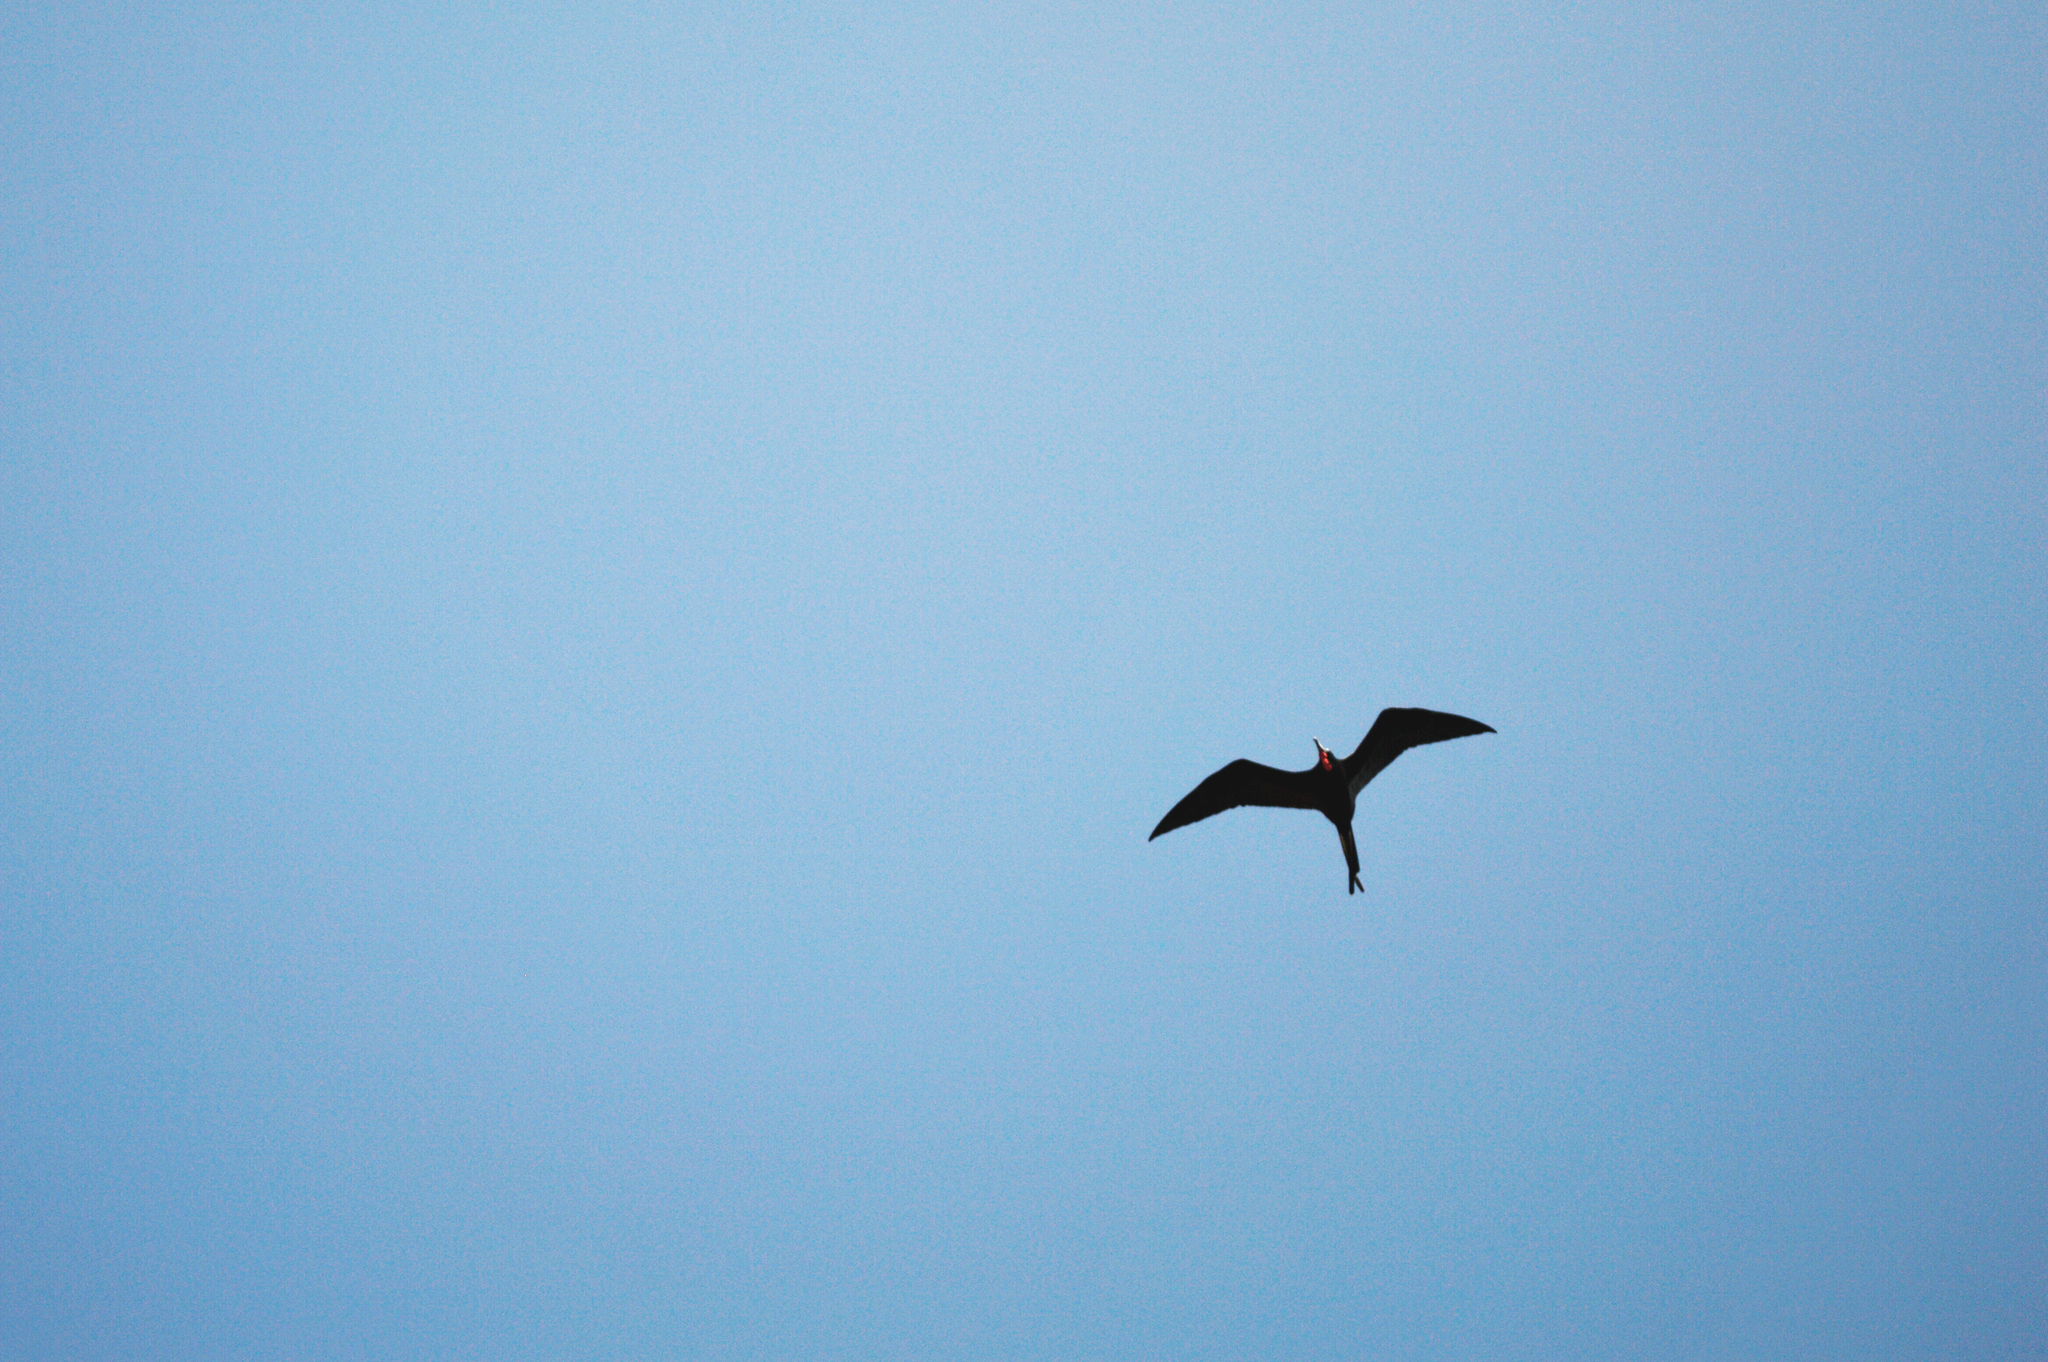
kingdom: Animalia
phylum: Chordata
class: Aves
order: Suliformes
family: Fregatidae
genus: Fregata
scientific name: Fregata magnificens
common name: Magnificent frigatebird
